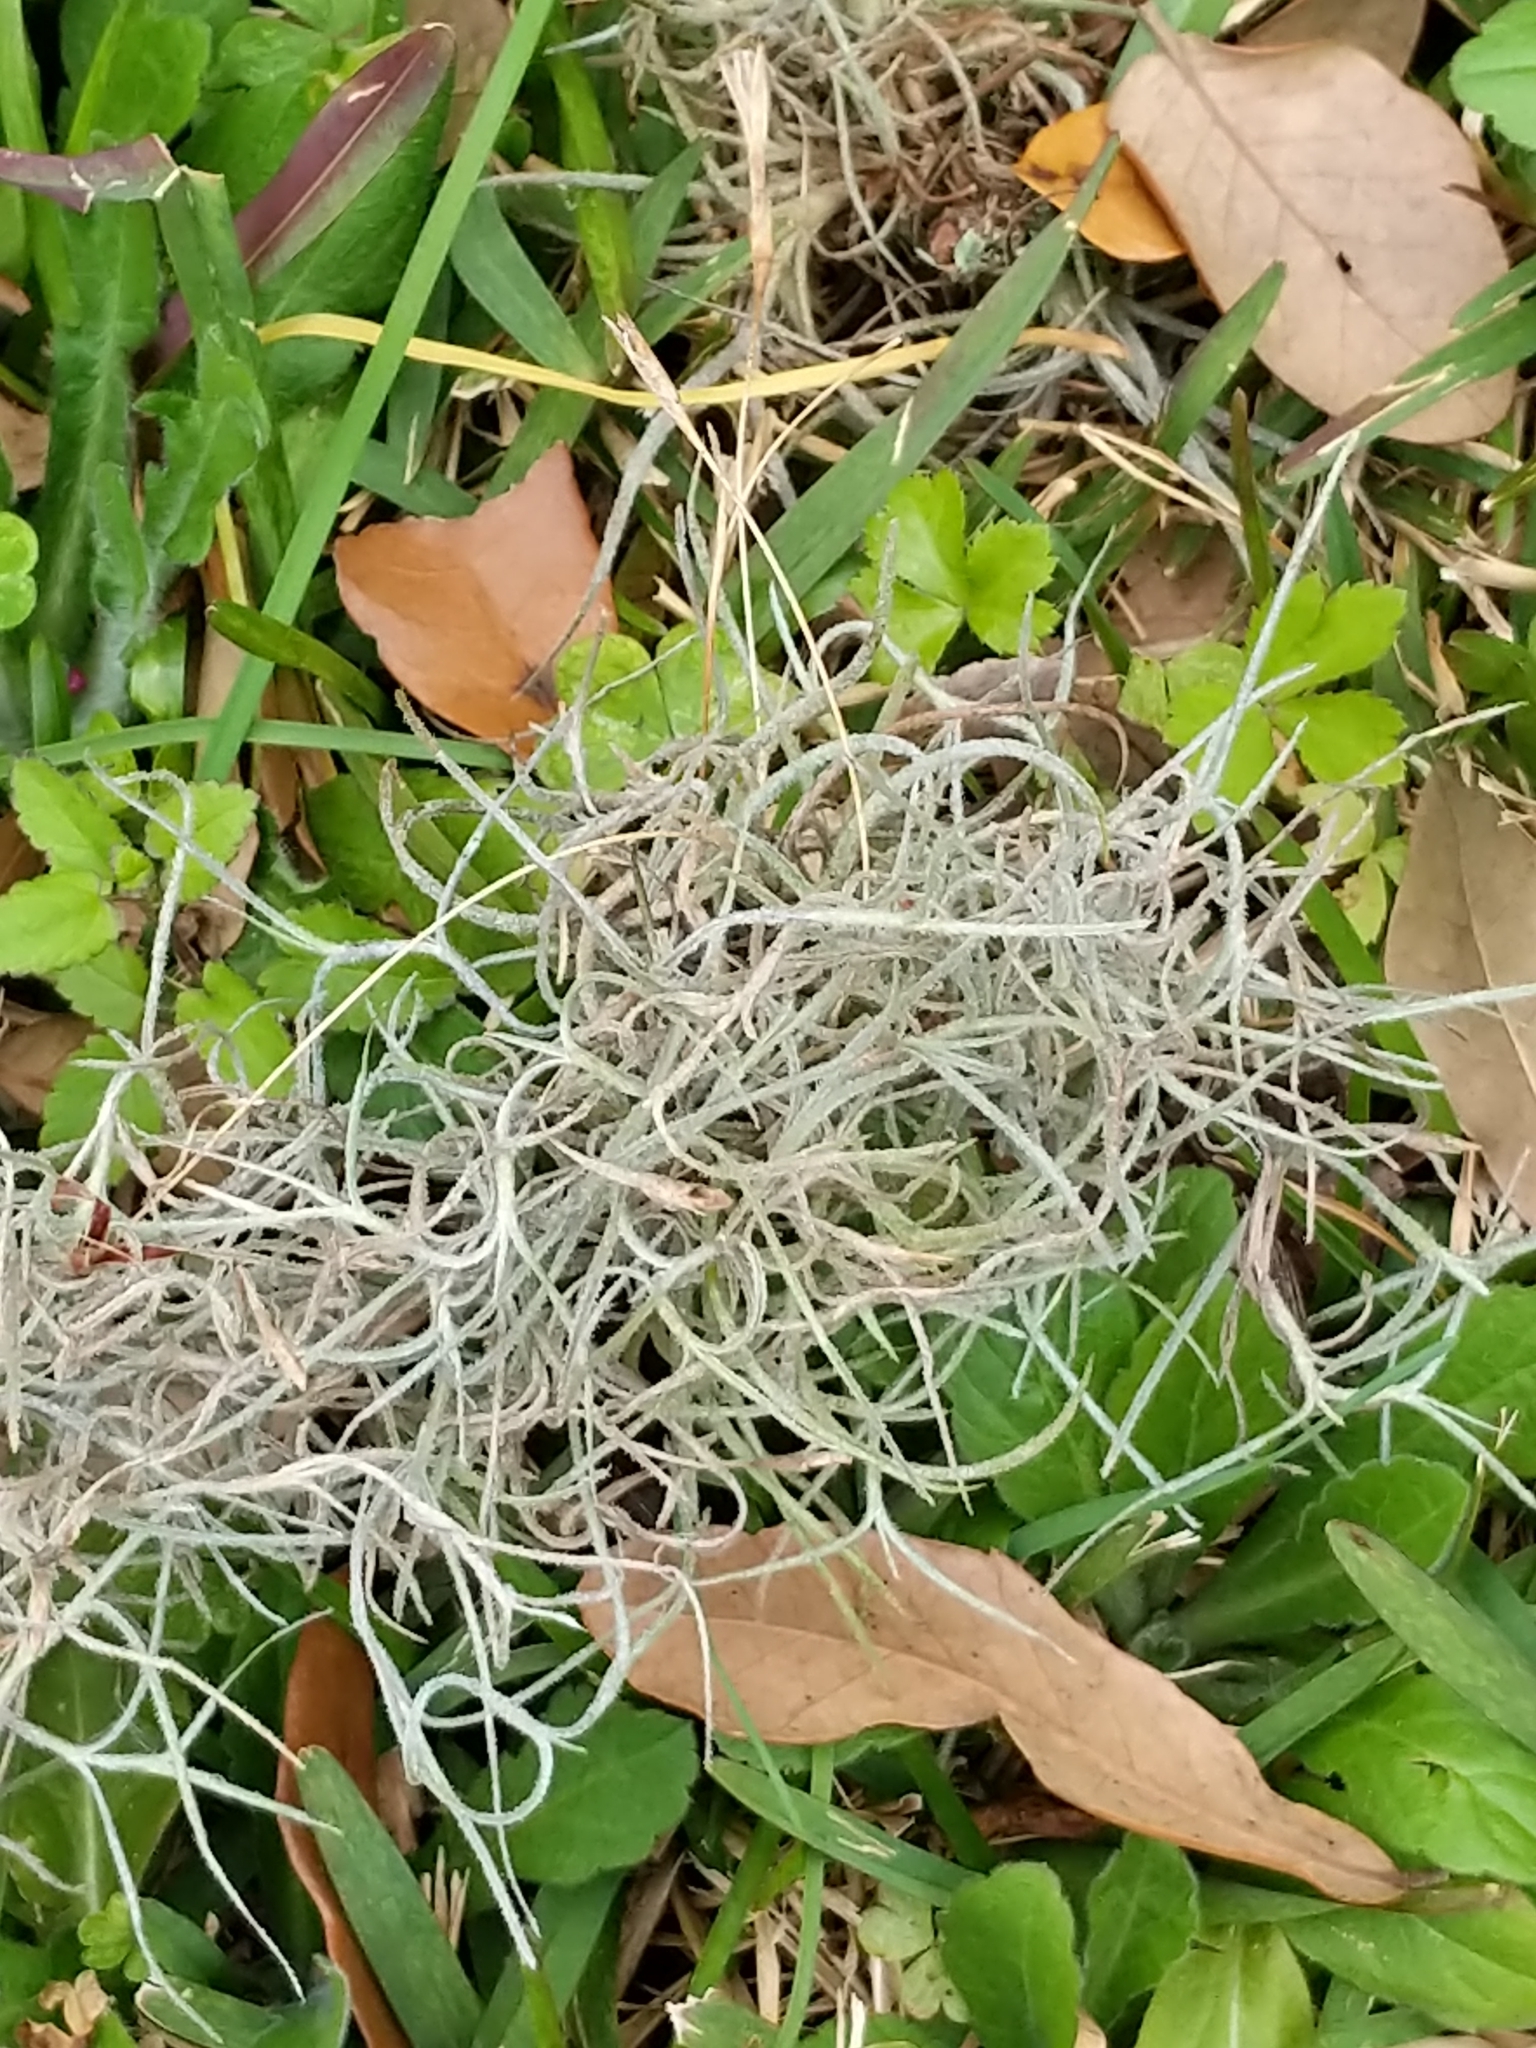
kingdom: Plantae
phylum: Tracheophyta
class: Liliopsida
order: Poales
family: Bromeliaceae
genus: Tillandsia
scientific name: Tillandsia usneoides
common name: Spanish moss
